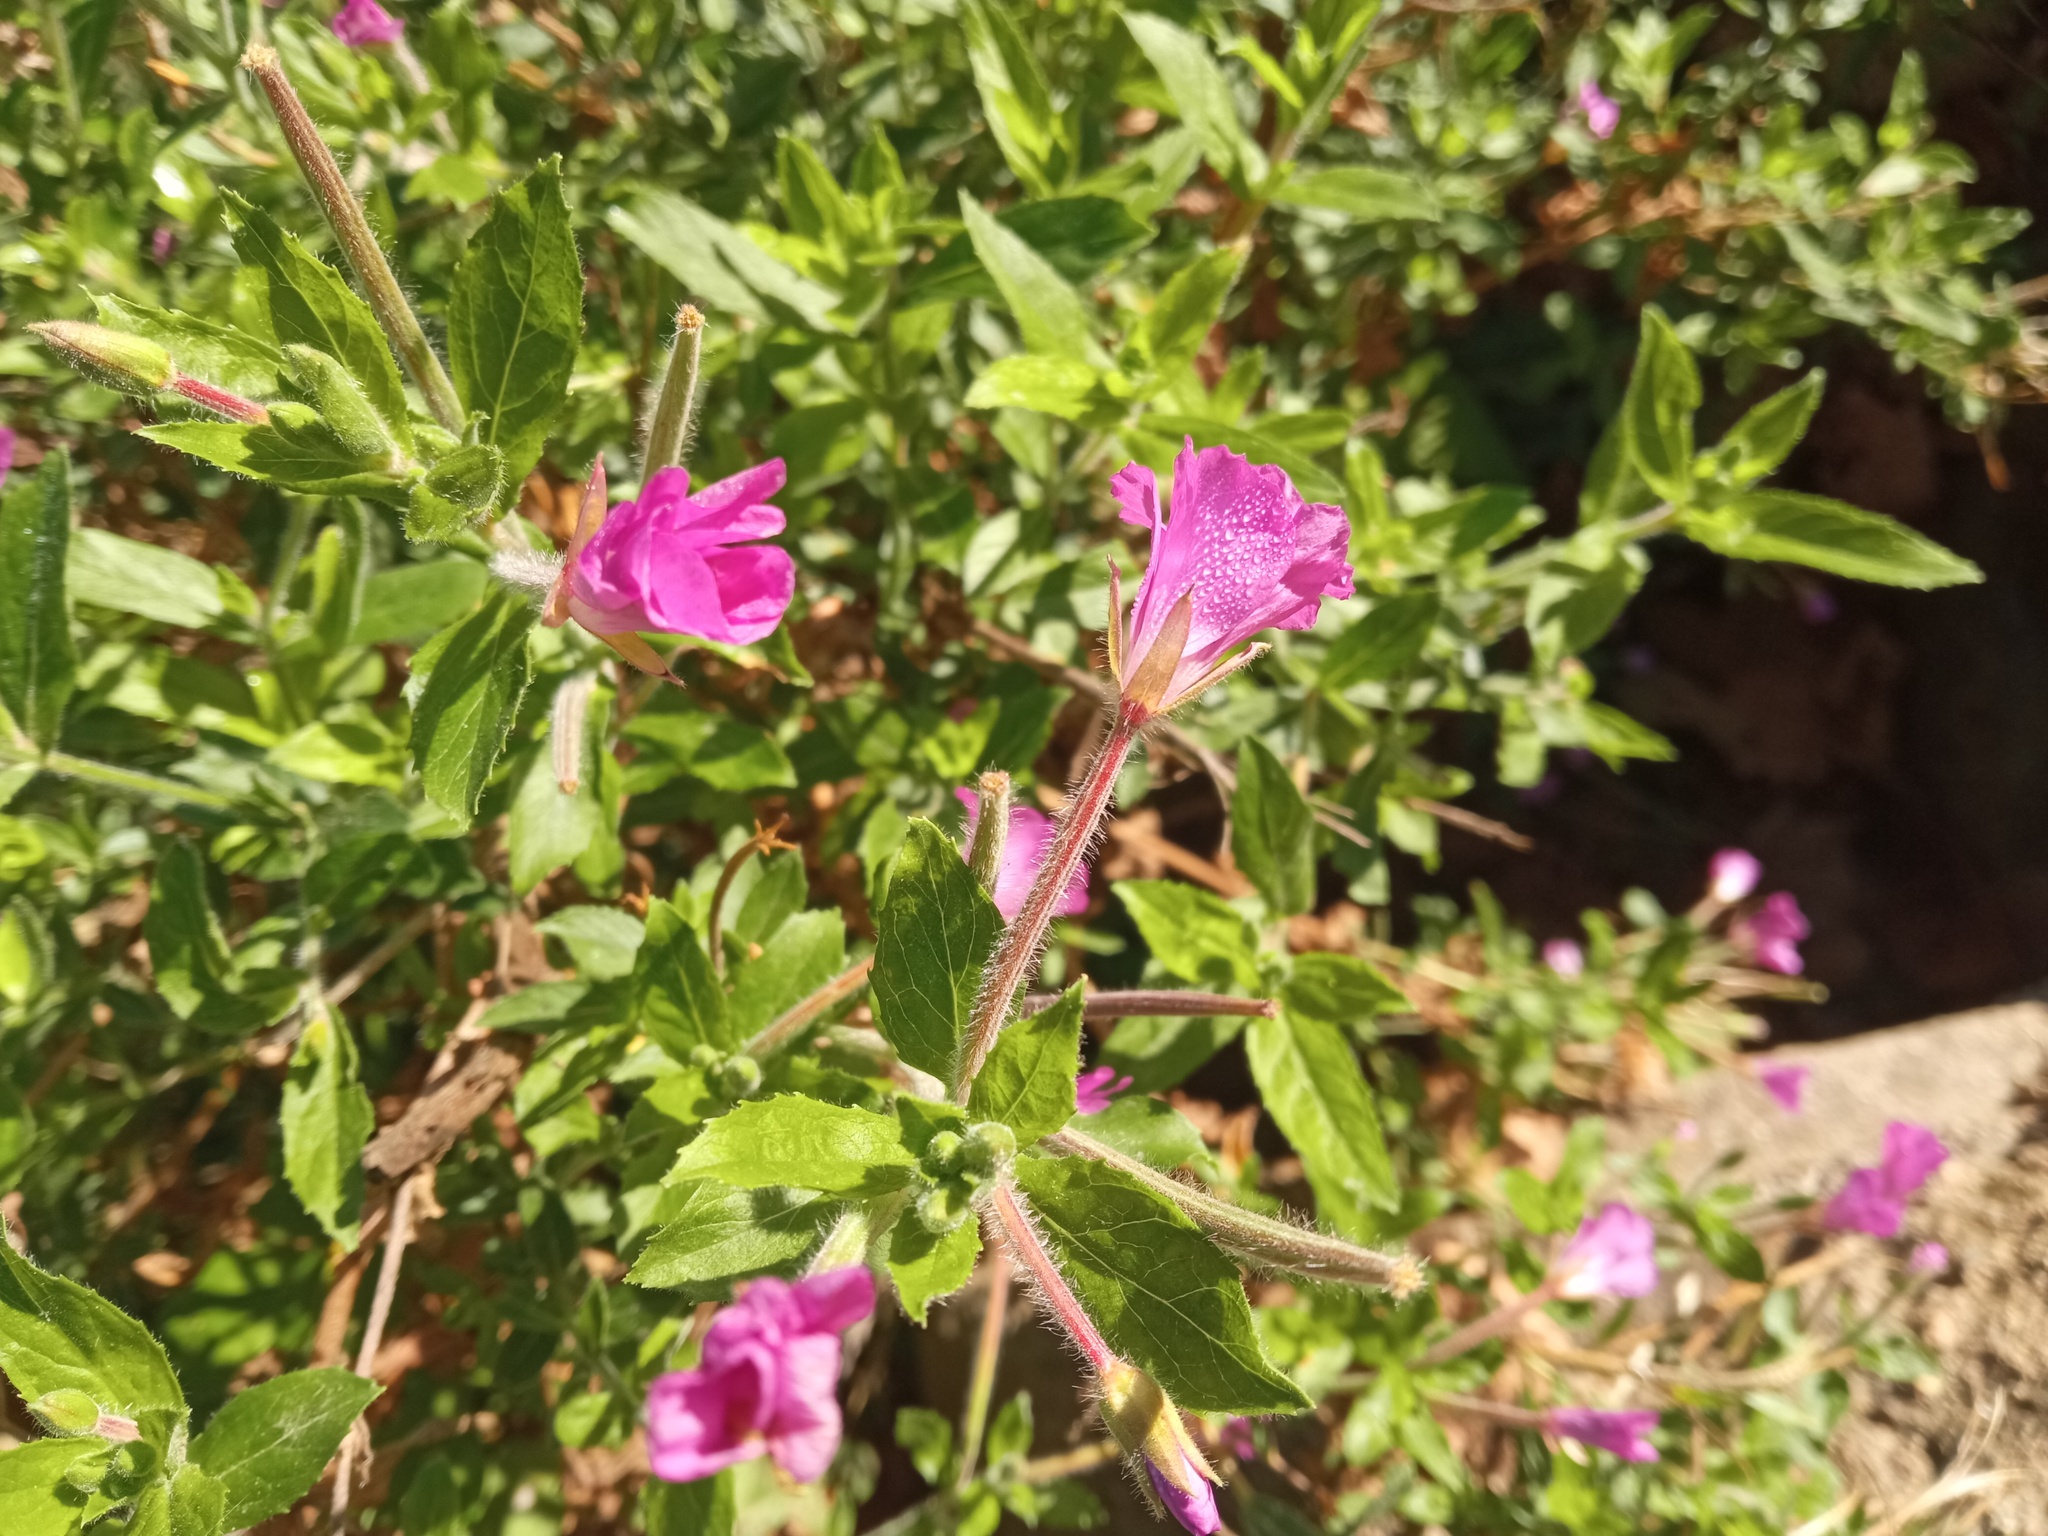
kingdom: Plantae
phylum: Tracheophyta
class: Magnoliopsida
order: Myrtales
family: Onagraceae
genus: Epilobium
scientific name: Epilobium hirsutum
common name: Great willowherb
